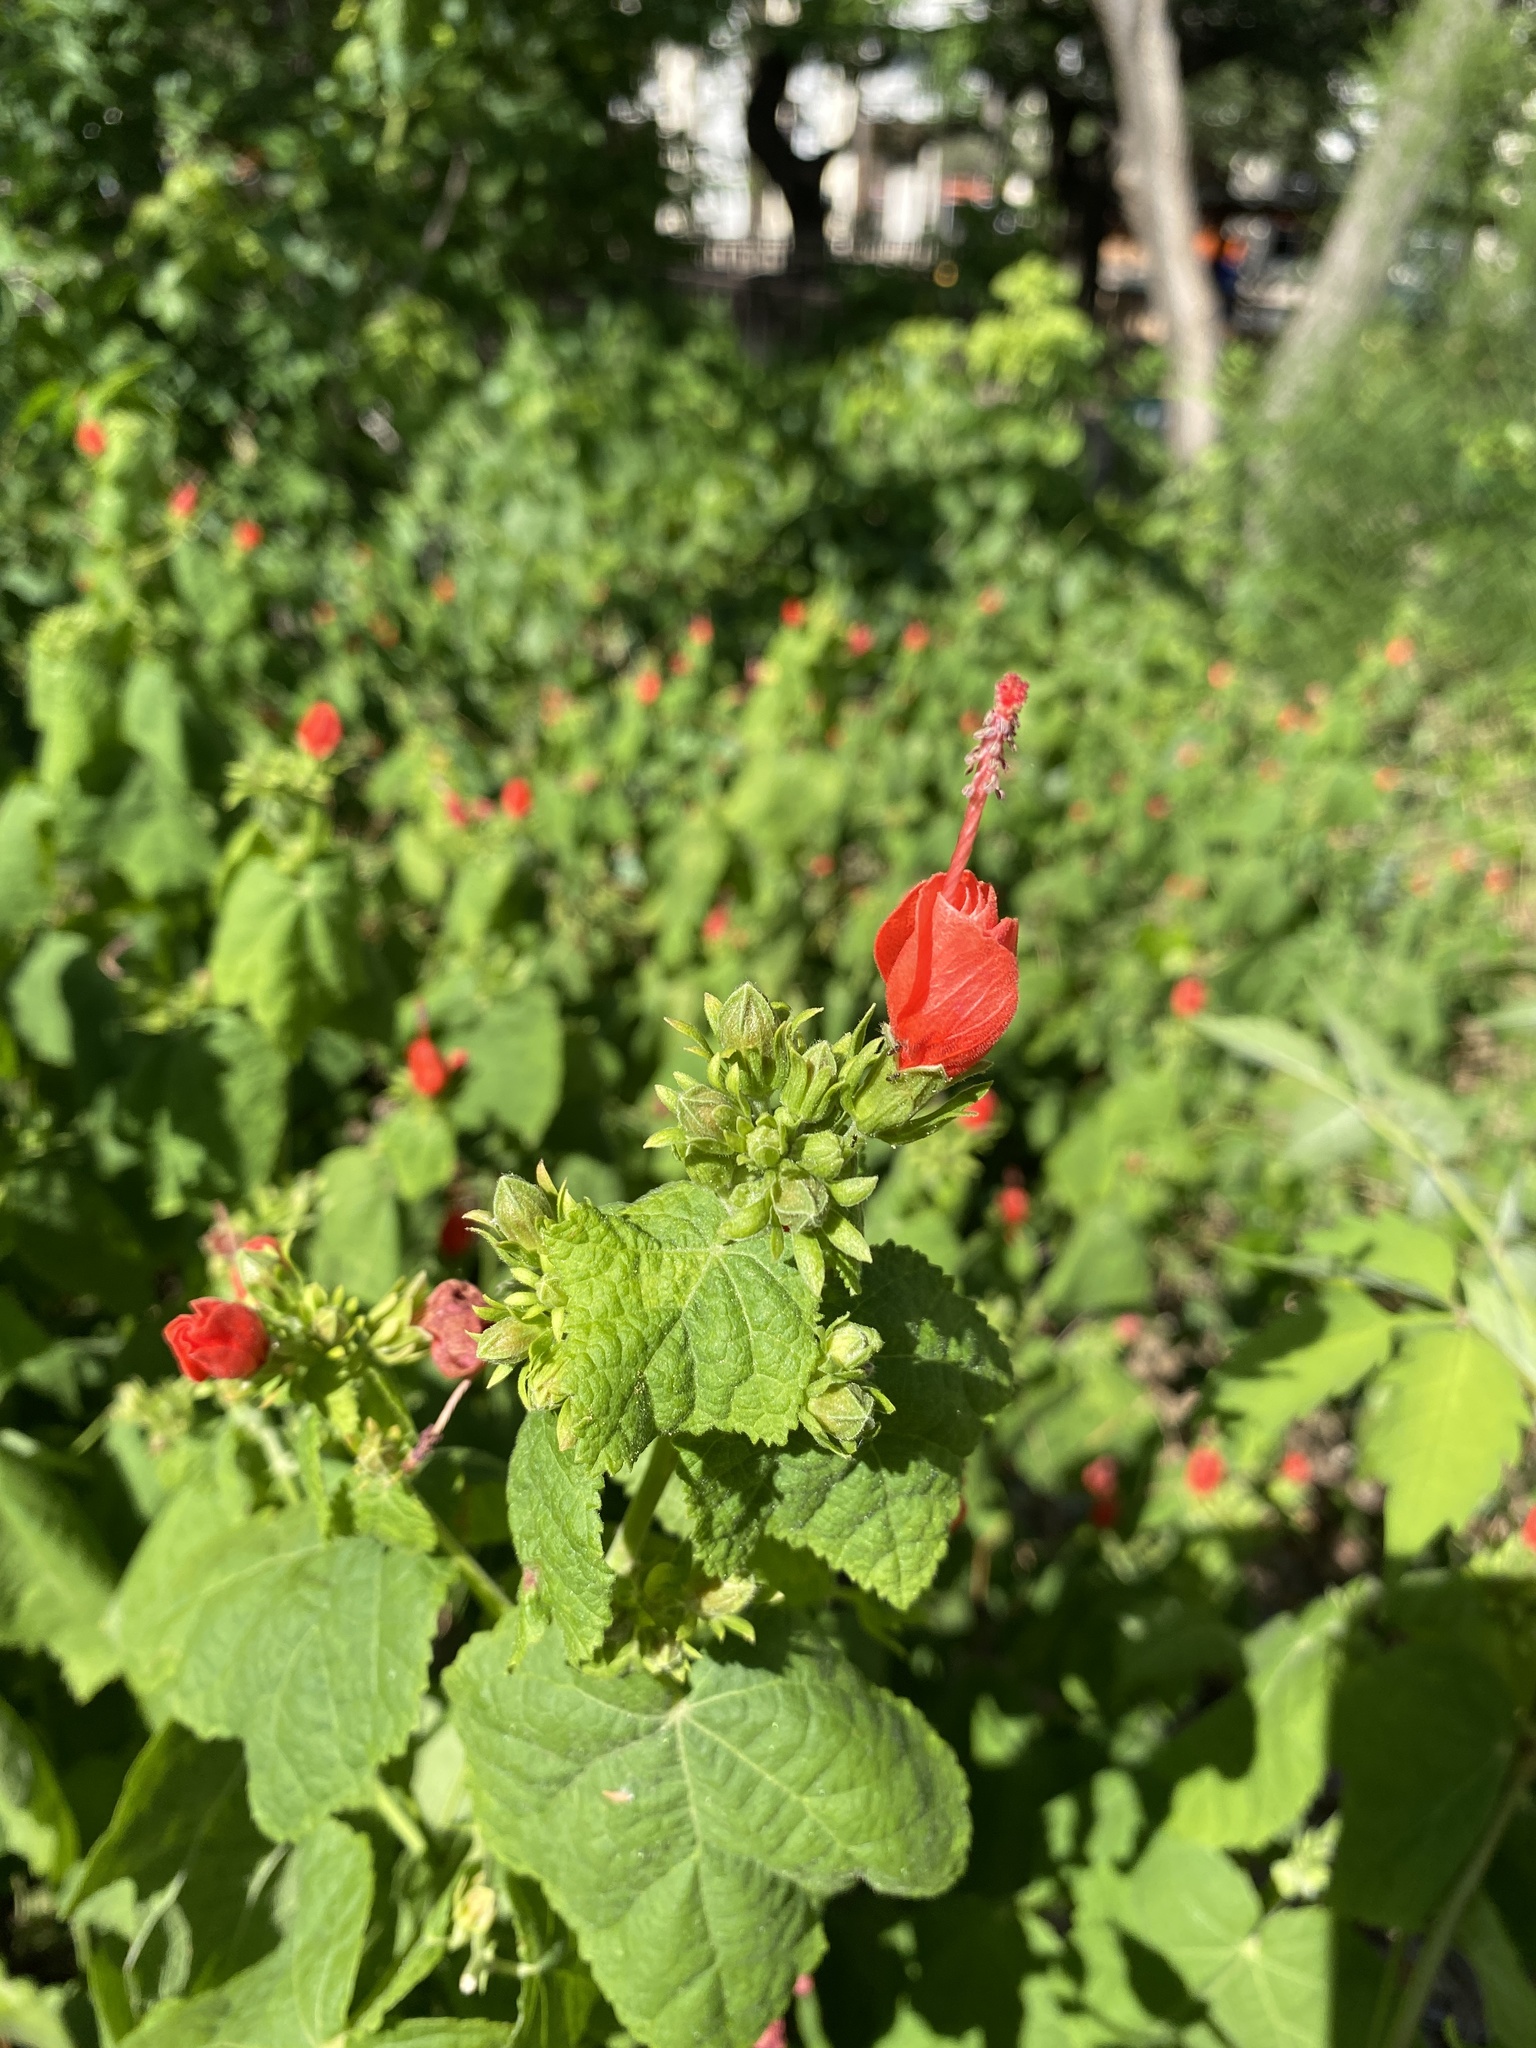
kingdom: Plantae
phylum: Tracheophyta
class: Magnoliopsida
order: Malvales
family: Malvaceae
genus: Malvaviscus
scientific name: Malvaviscus arboreus
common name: Wax mallow
